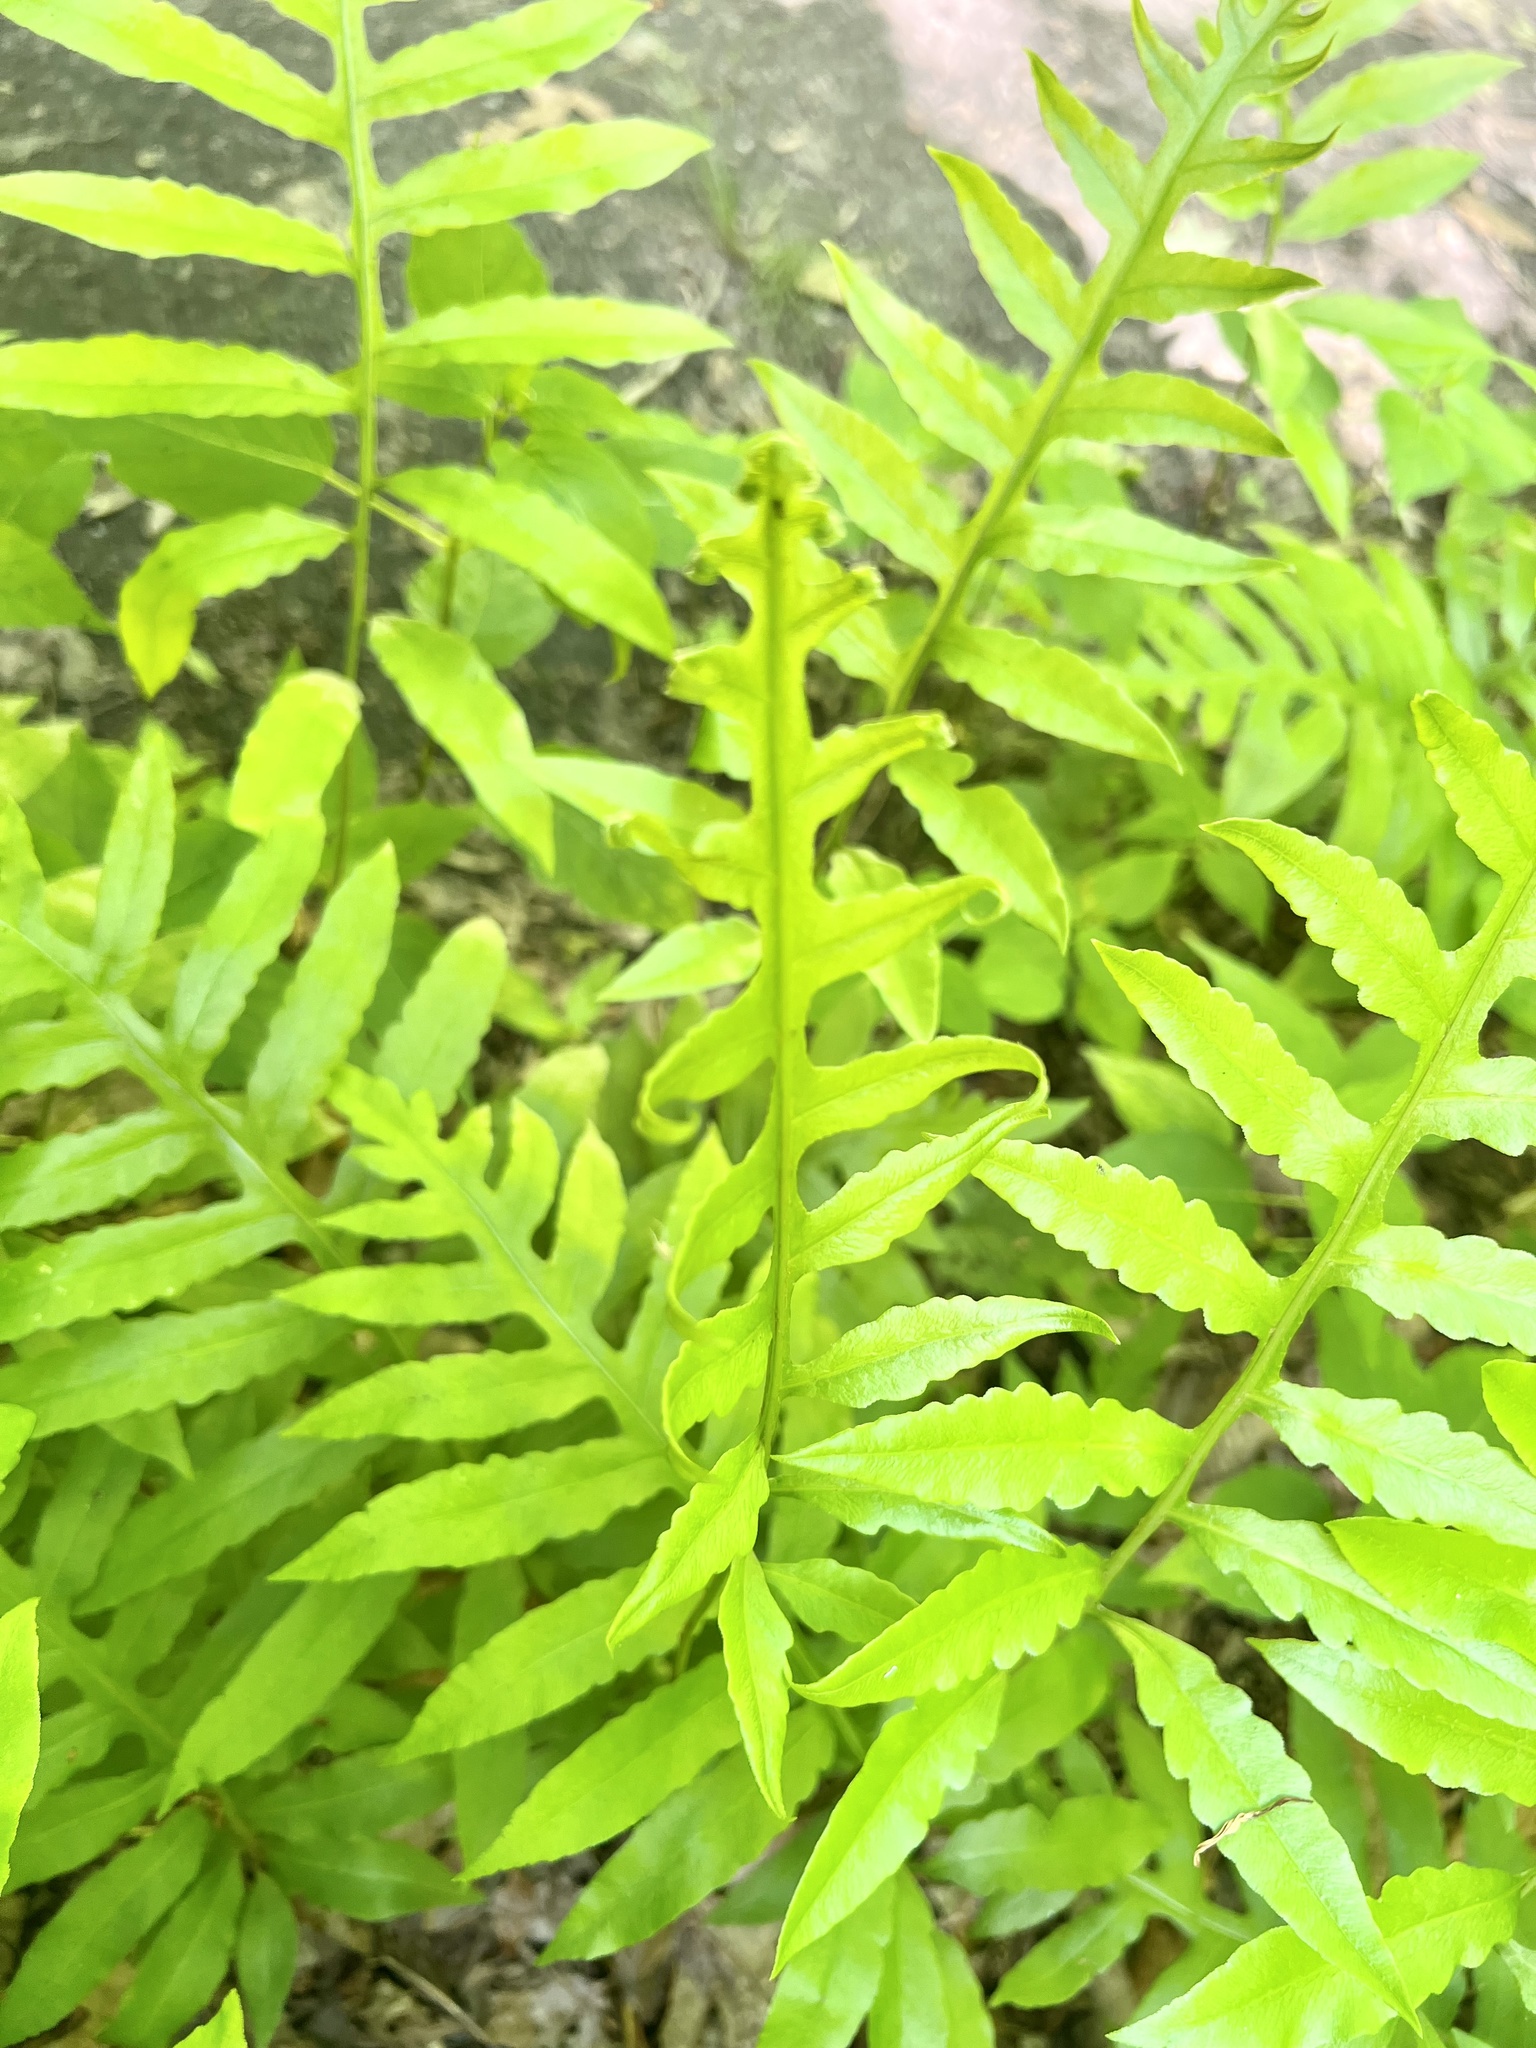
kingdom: Plantae
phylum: Tracheophyta
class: Polypodiopsida
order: Polypodiales
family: Blechnaceae
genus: Lorinseria
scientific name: Lorinseria areolata
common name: Dwarf chain fern
